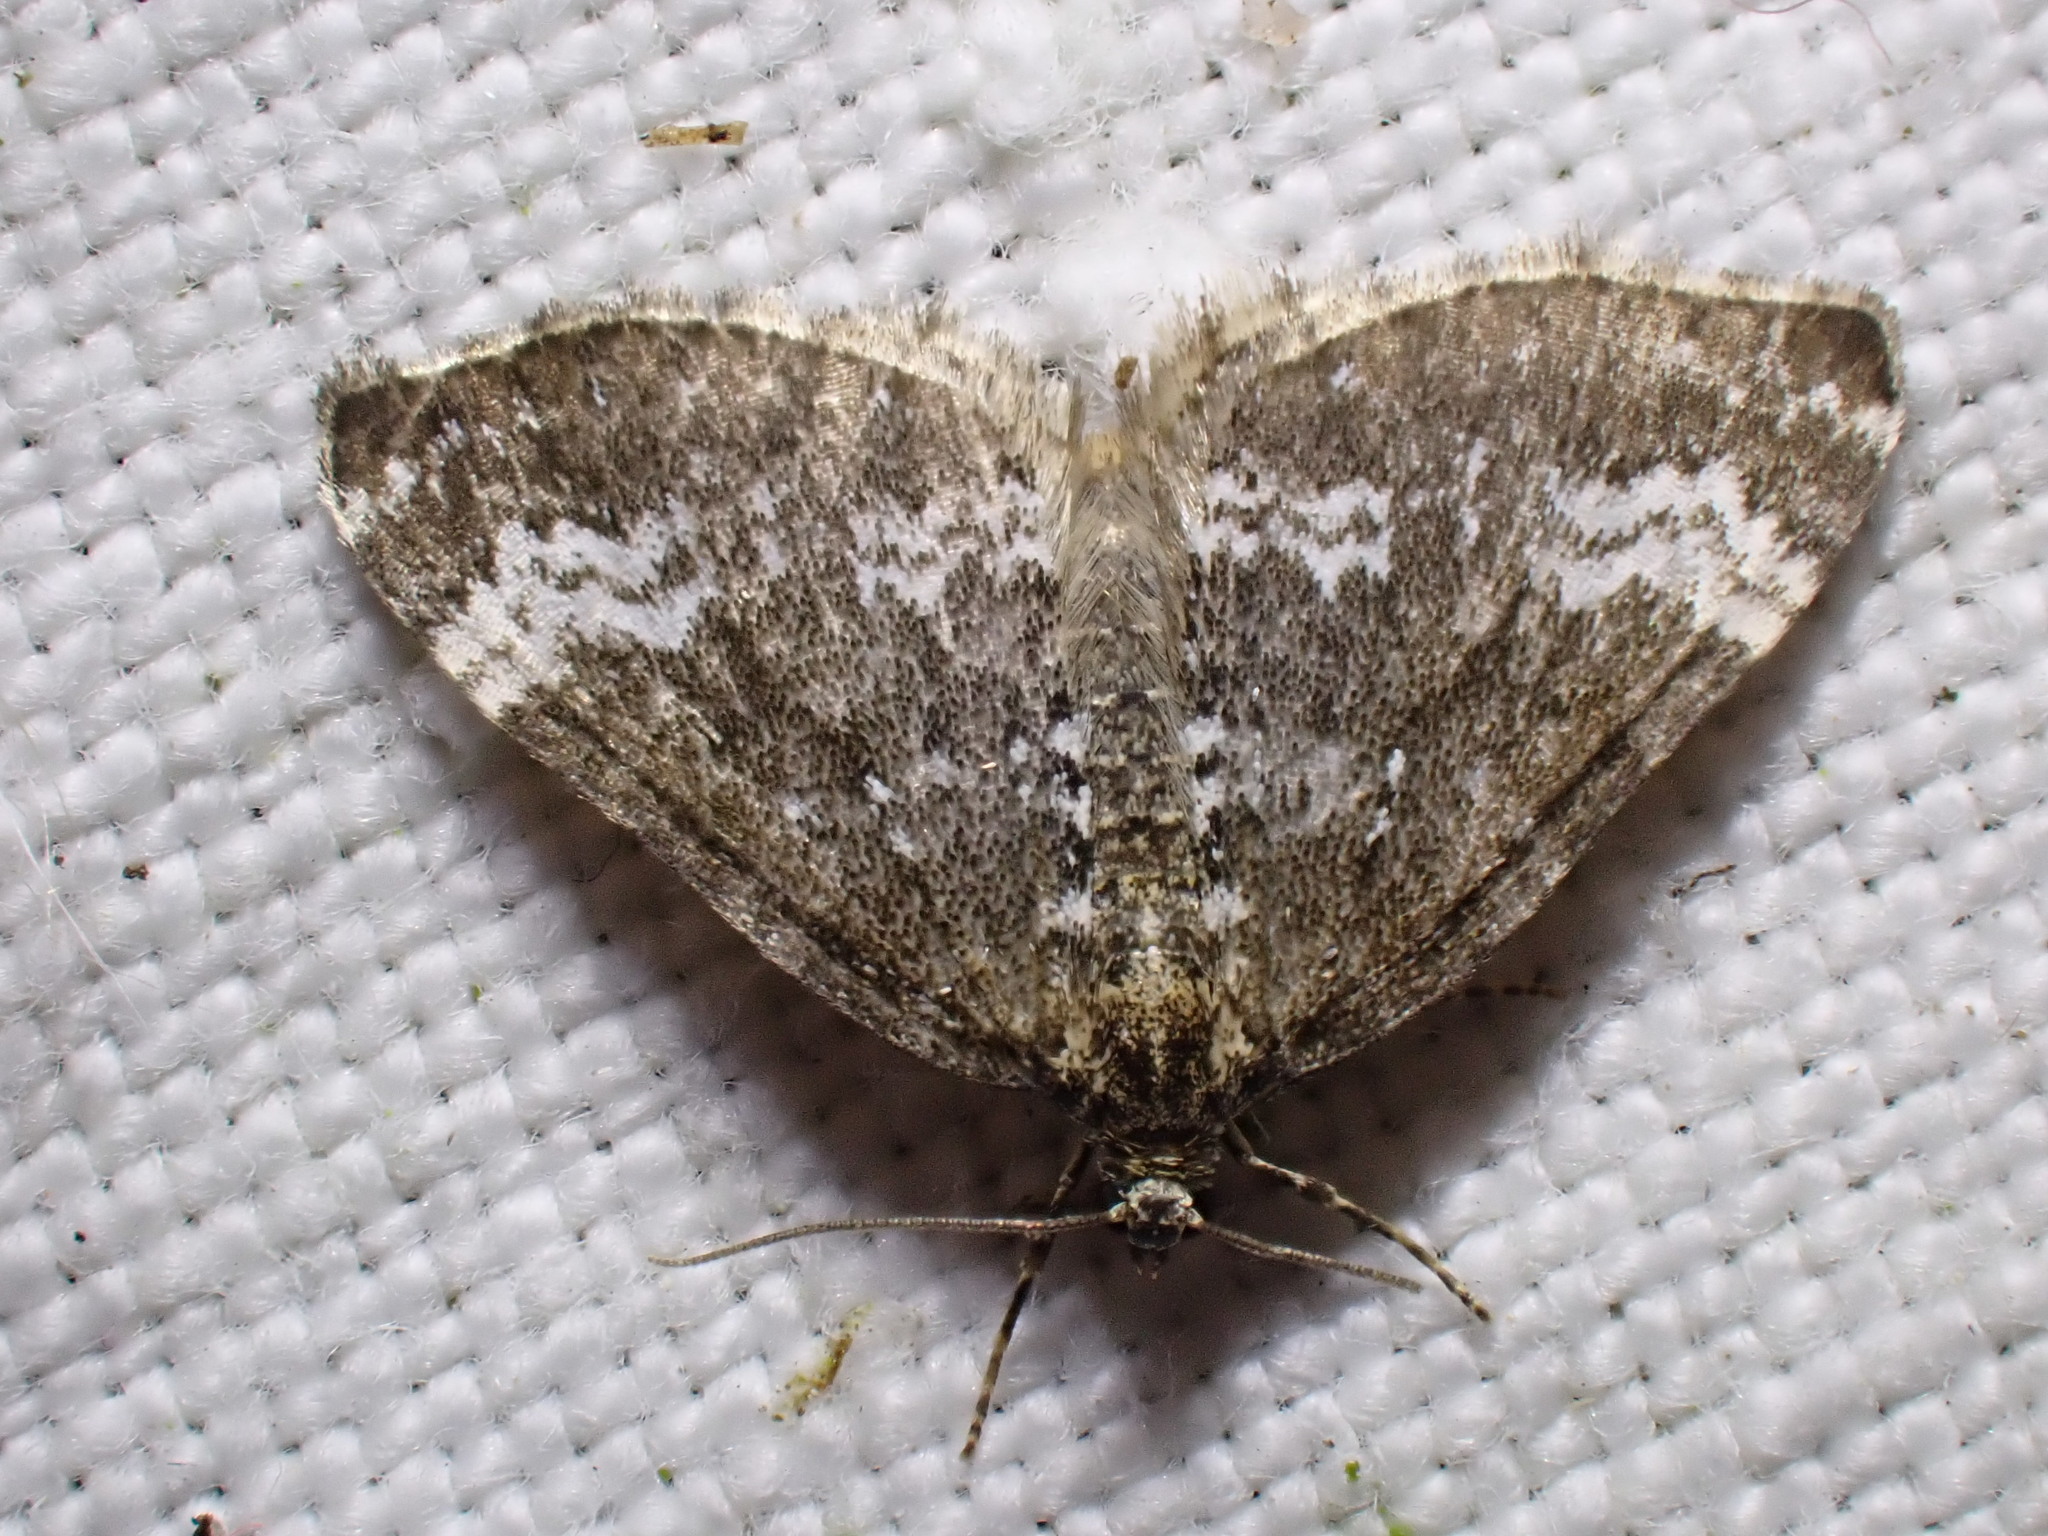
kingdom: Animalia
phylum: Arthropoda
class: Insecta
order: Lepidoptera
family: Geometridae
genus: Perizoma
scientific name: Perizoma alchemillata
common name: Small rivulet
